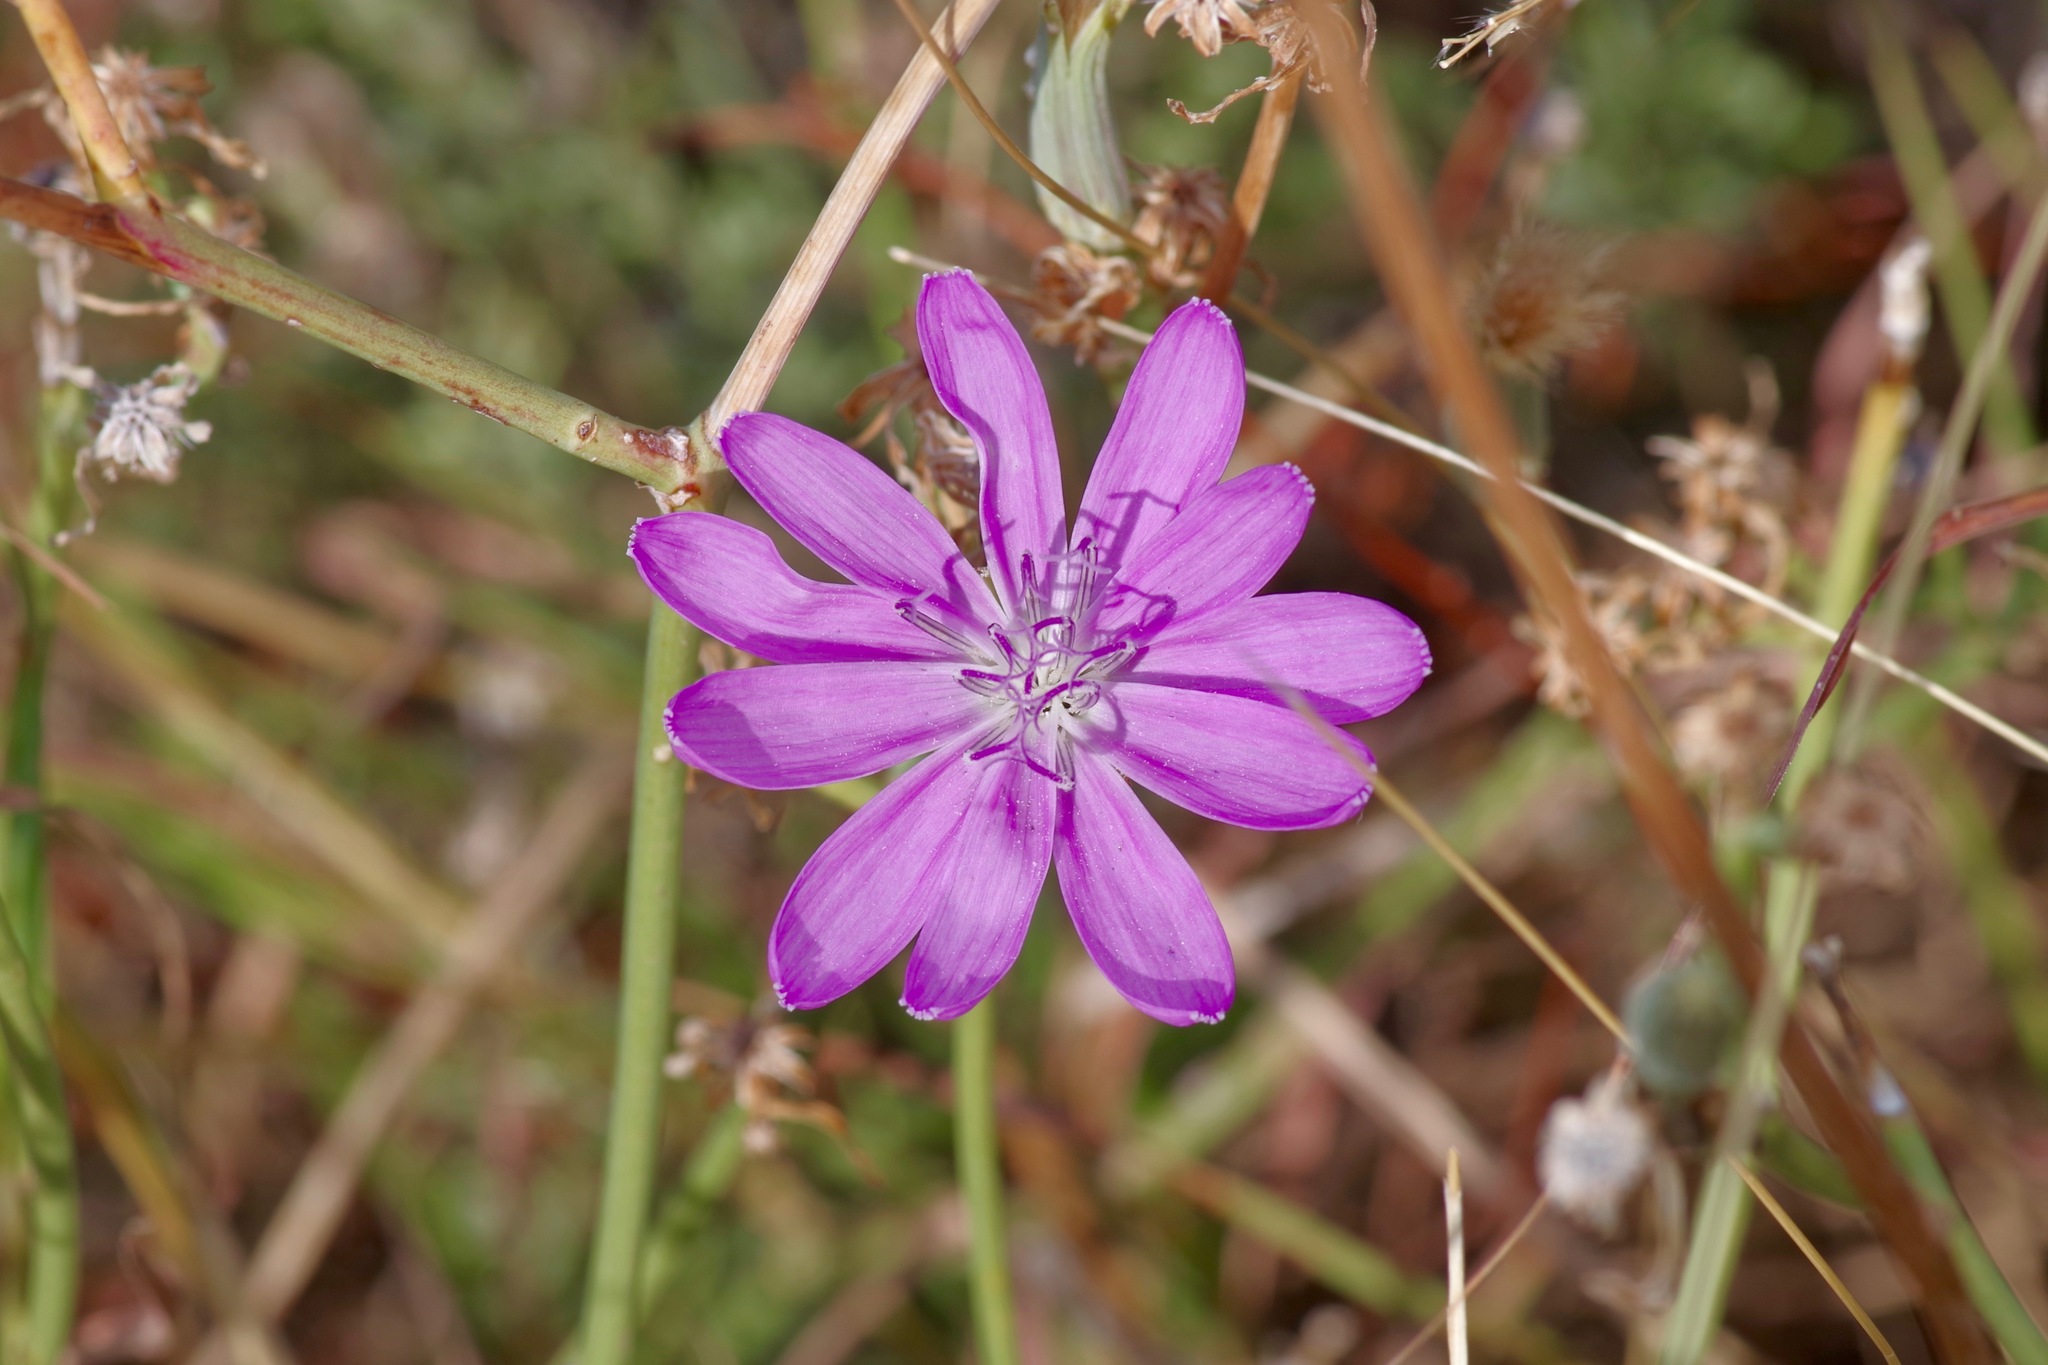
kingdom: Plantae
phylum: Tracheophyta
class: Magnoliopsida
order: Asterales
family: Asteraceae
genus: Lygodesmia
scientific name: Lygodesmia texana
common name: Texas skeleton-plant
